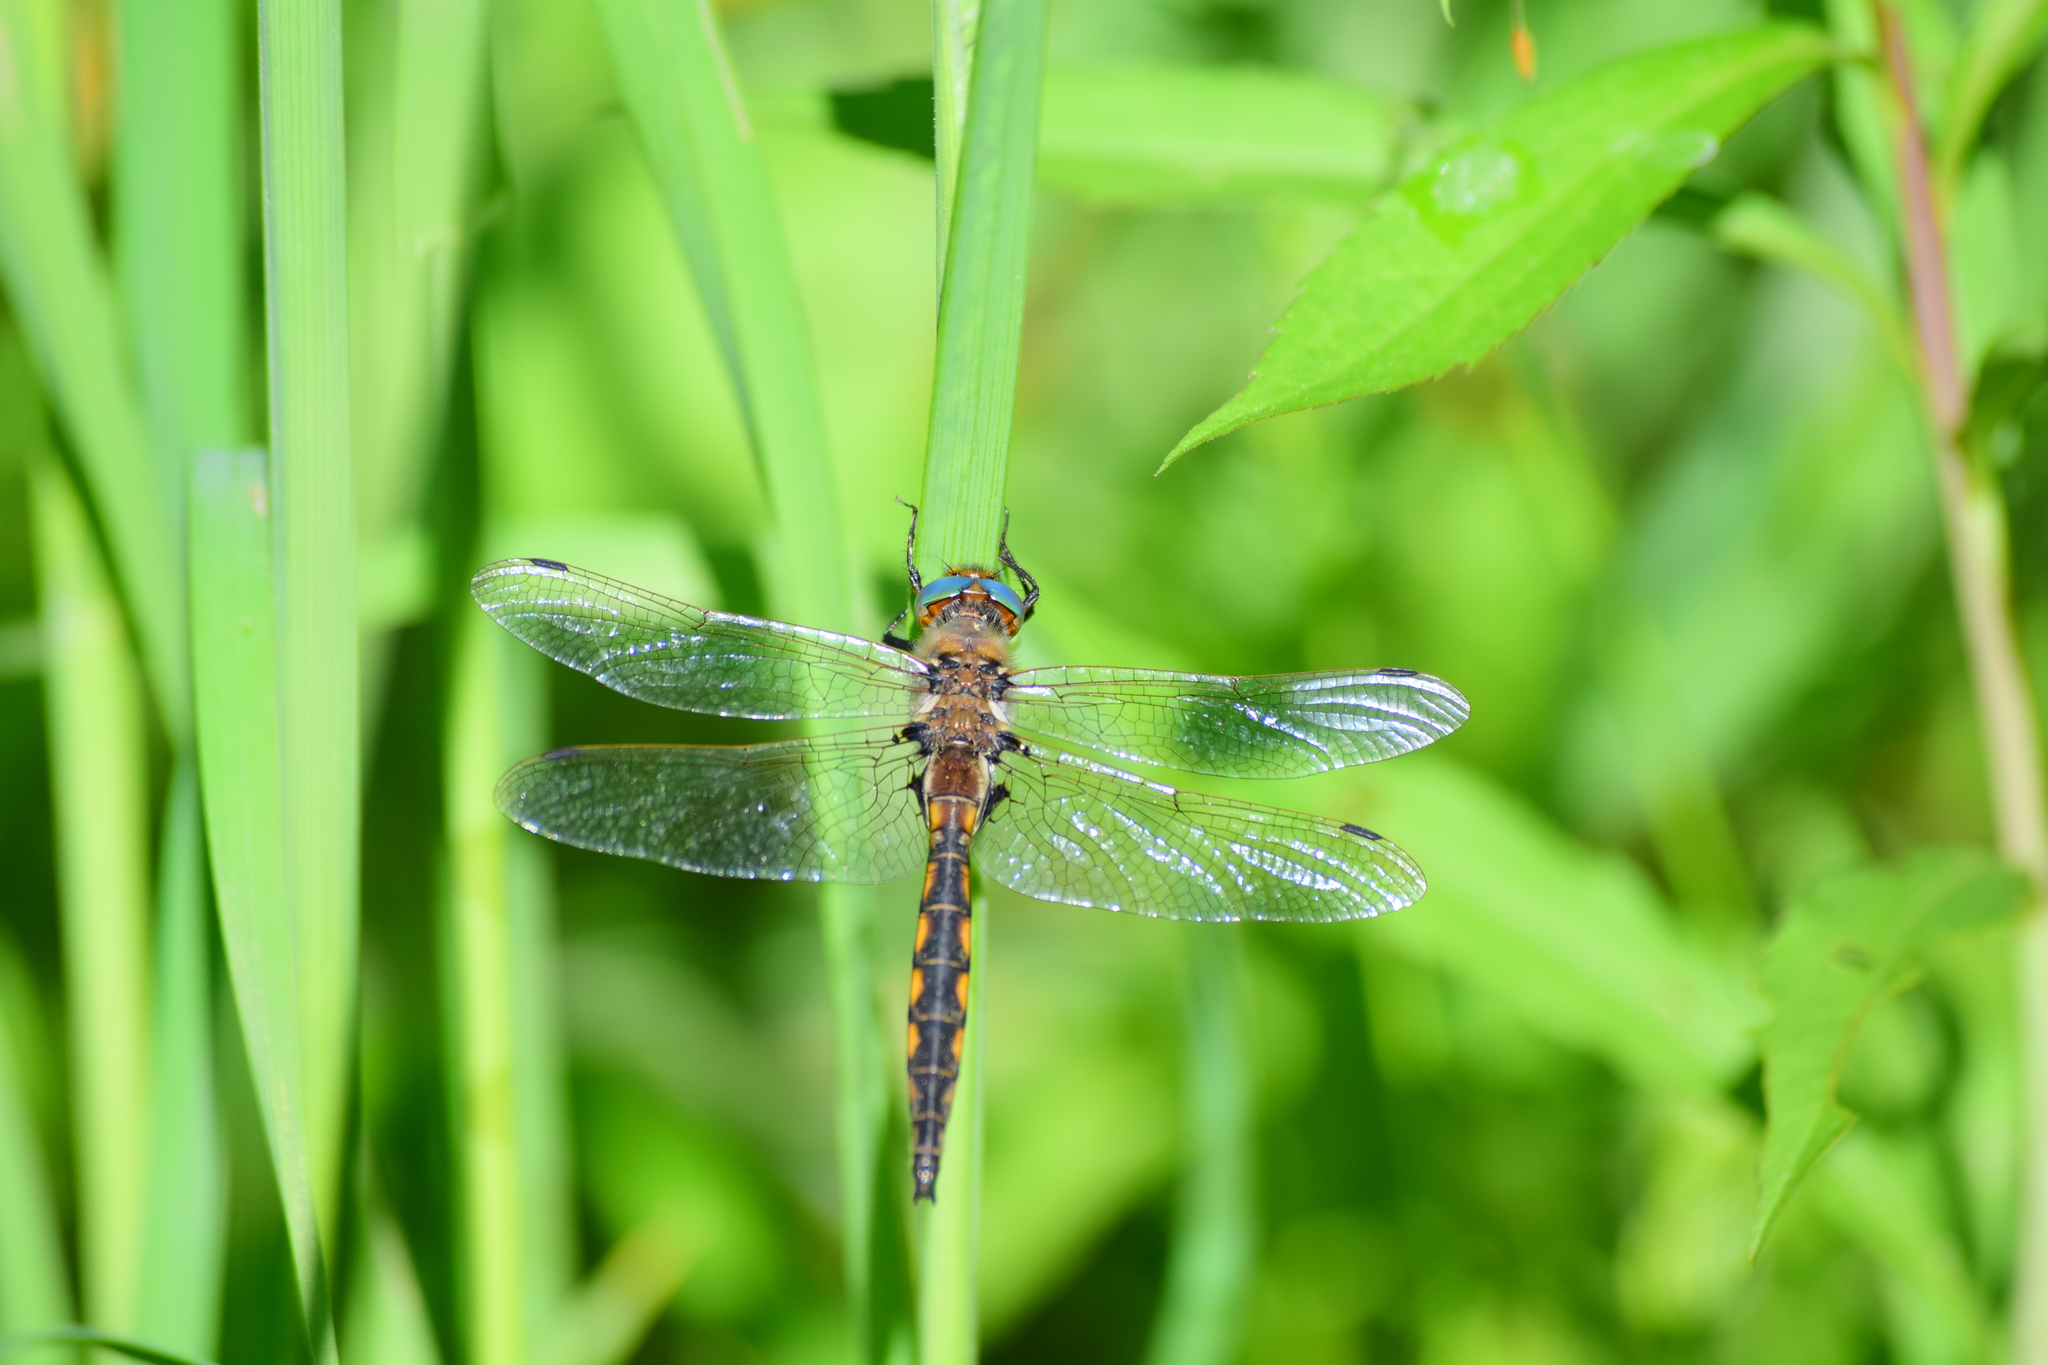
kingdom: Animalia
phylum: Arthropoda
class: Insecta
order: Odonata
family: Corduliidae
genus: Epitheca
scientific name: Epitheca canis
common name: Beaverpond baskettail
